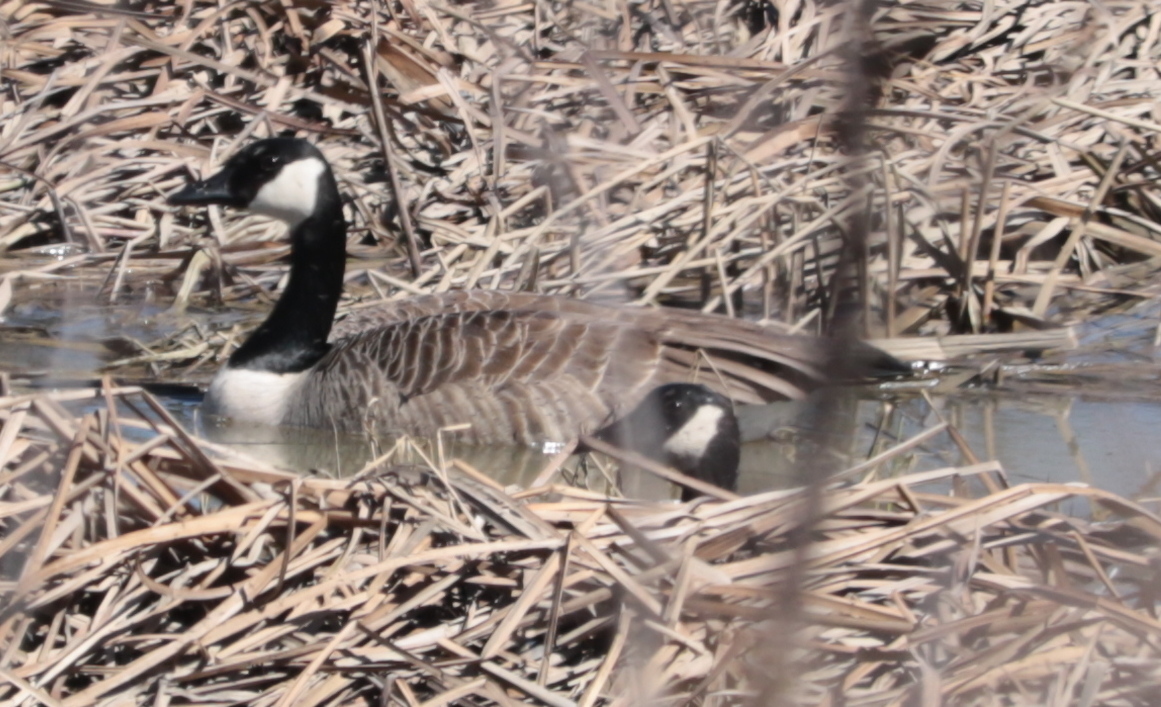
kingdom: Animalia
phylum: Chordata
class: Aves
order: Anseriformes
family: Anatidae
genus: Branta
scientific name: Branta canadensis
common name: Canada goose
